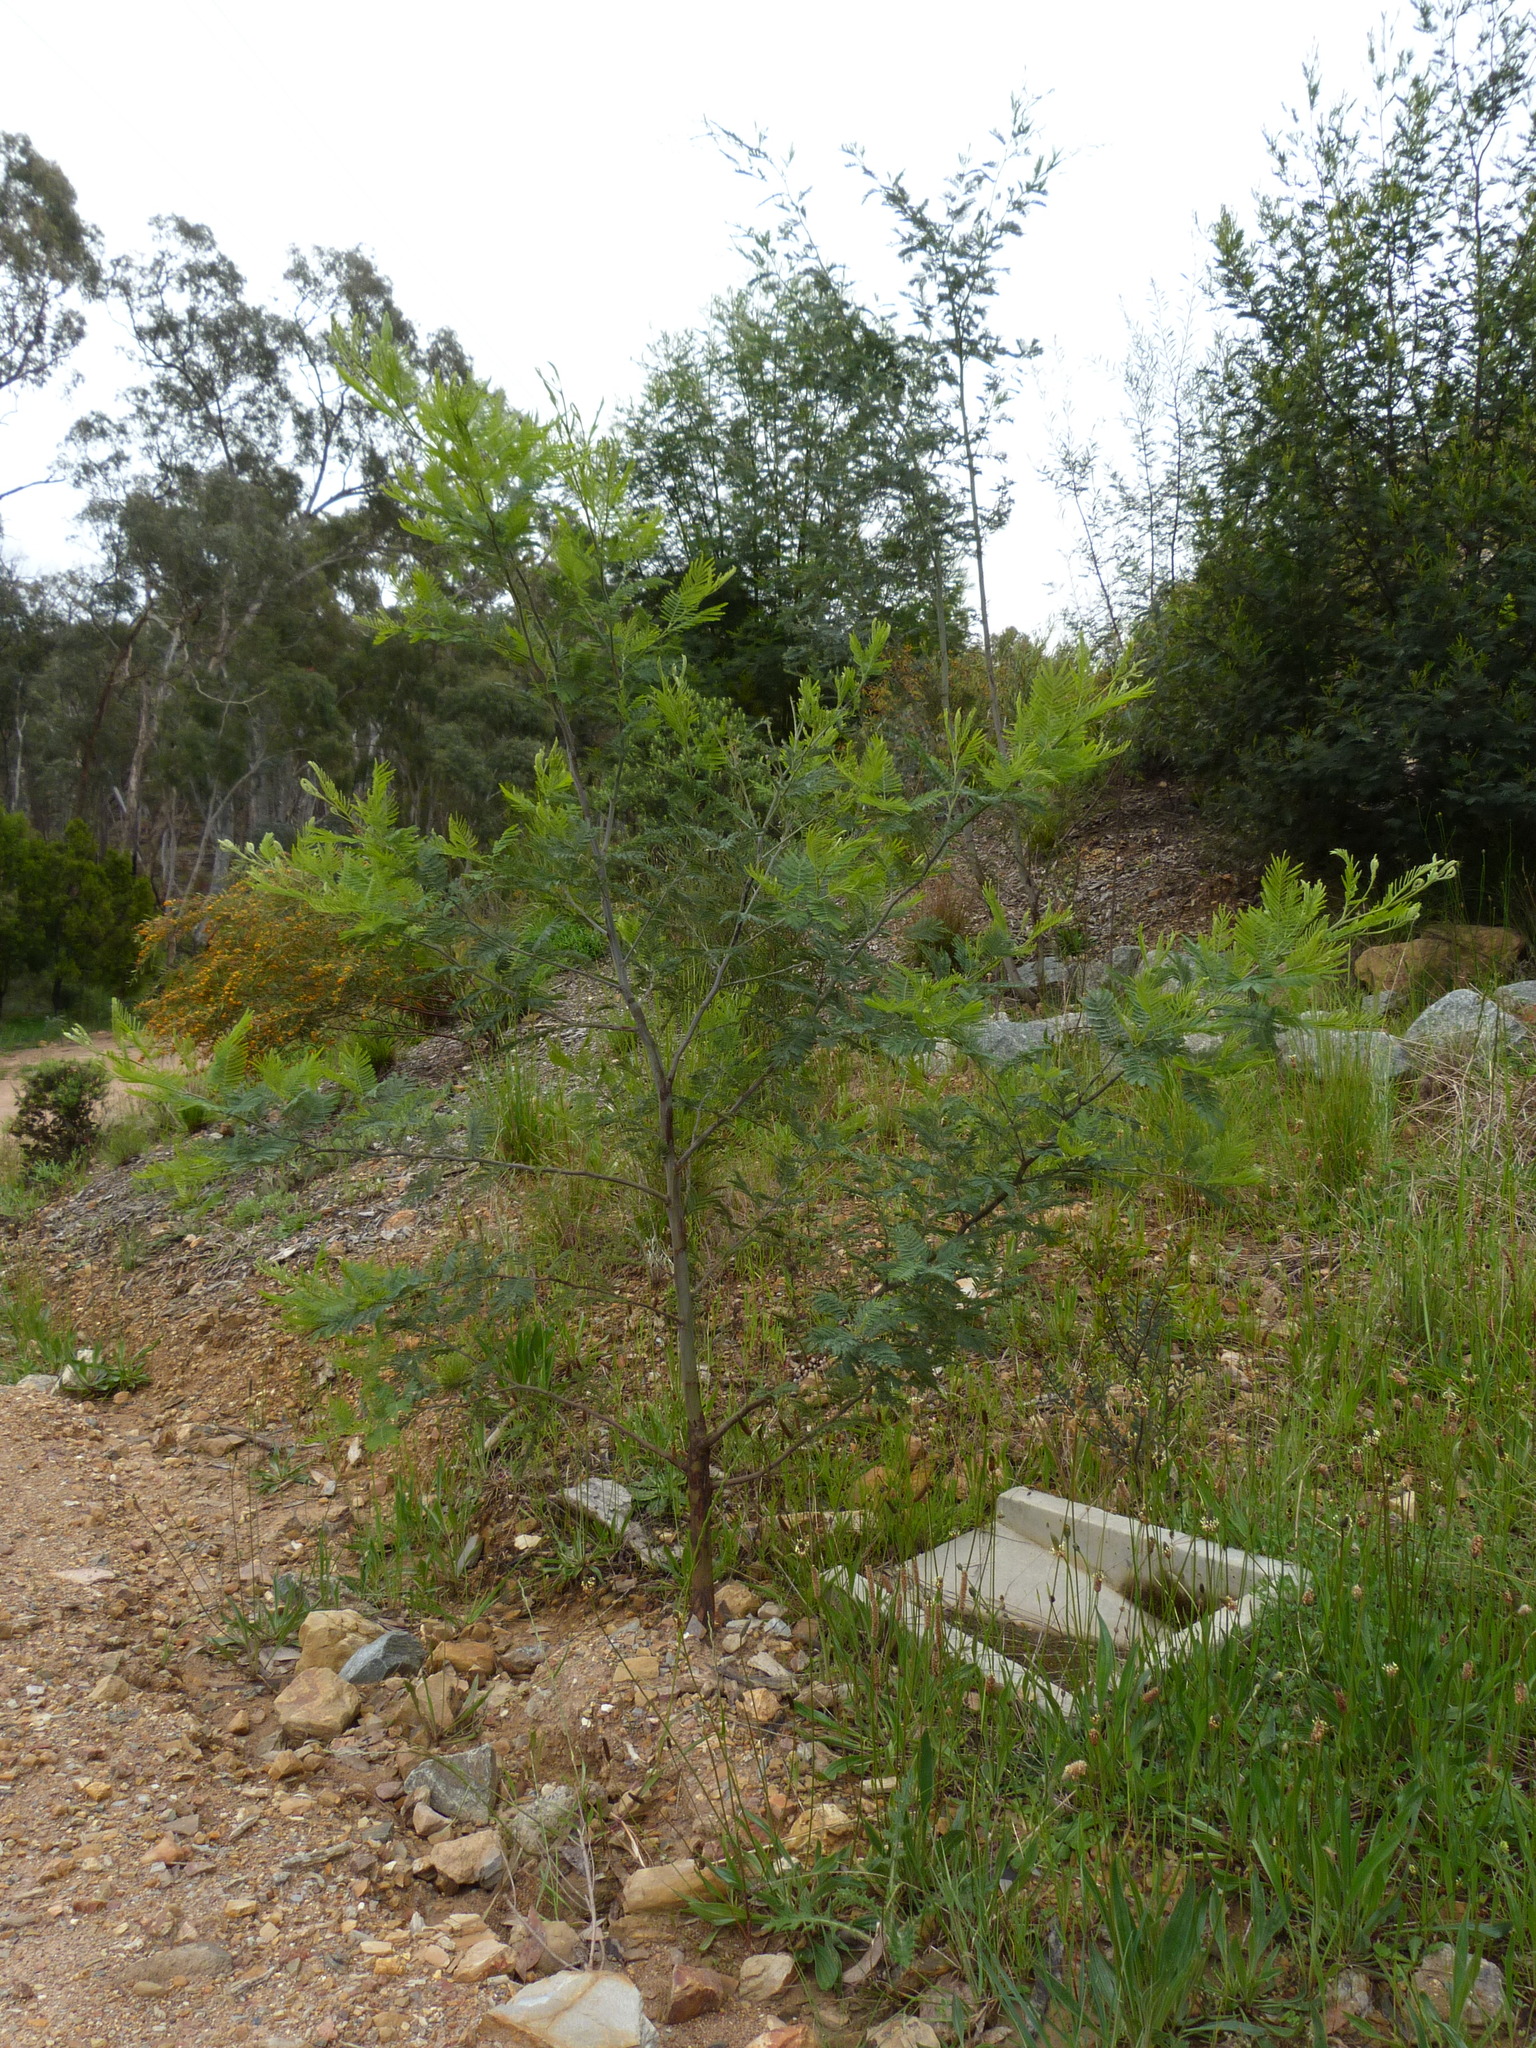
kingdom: Plantae
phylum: Tracheophyta
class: Magnoliopsida
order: Fabales
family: Fabaceae
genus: Acacia
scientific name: Acacia decurrens
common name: Green wattle
